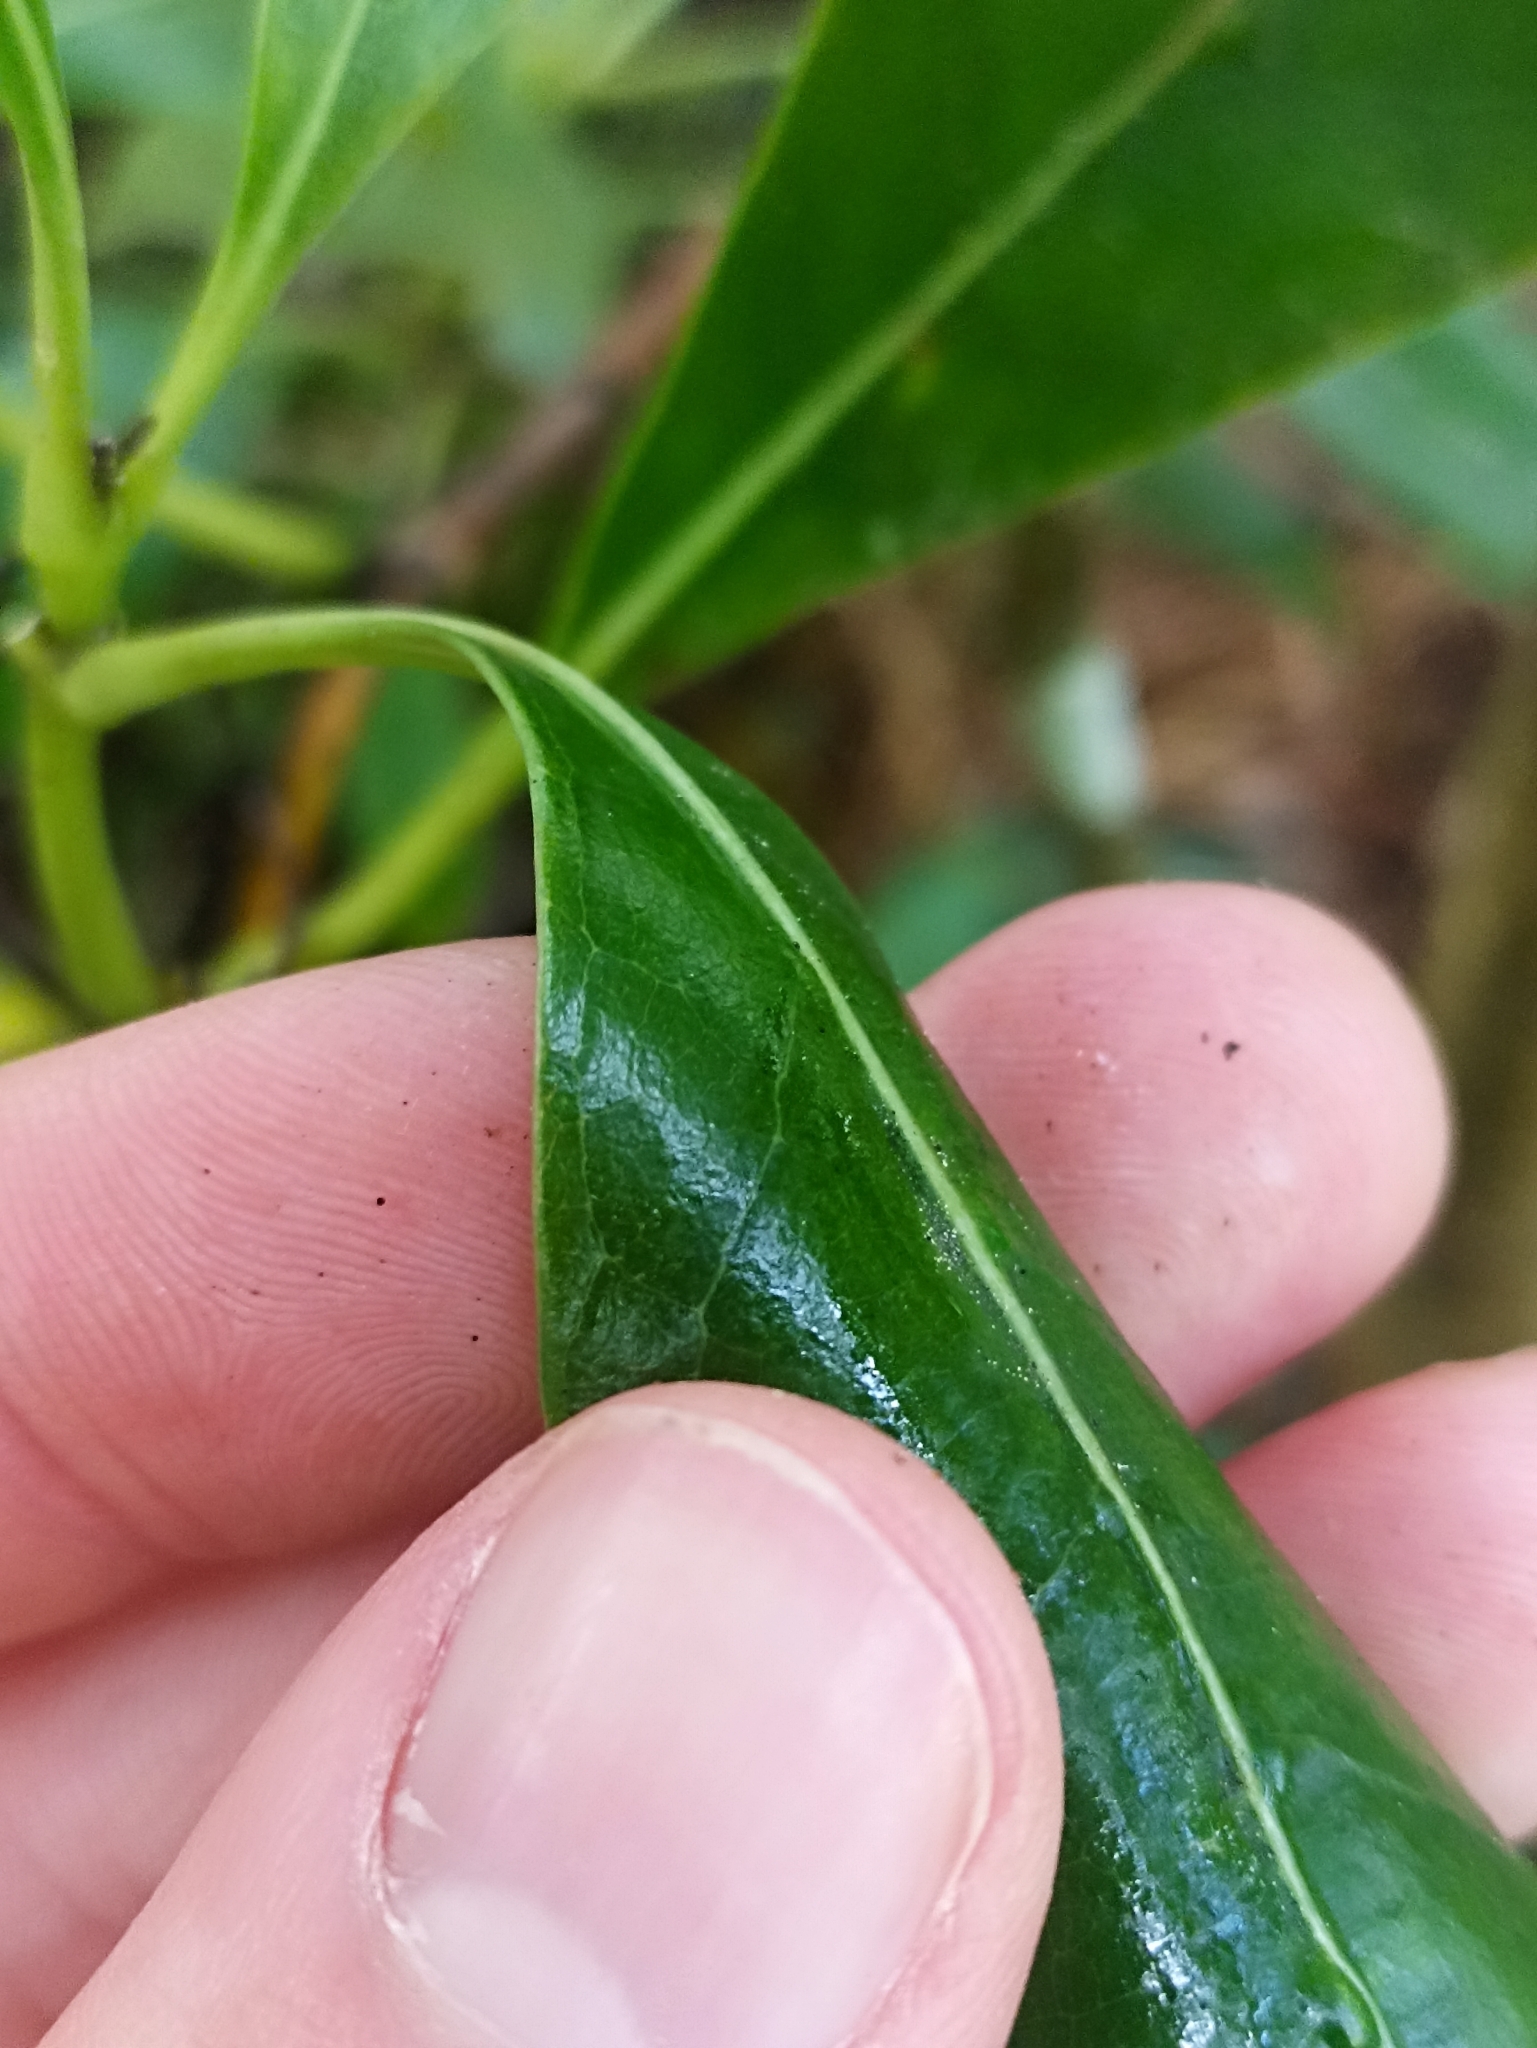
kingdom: Plantae
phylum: Tracheophyta
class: Magnoliopsida
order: Gentianales
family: Rubiaceae
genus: Coprosma
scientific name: Coprosma lucida
